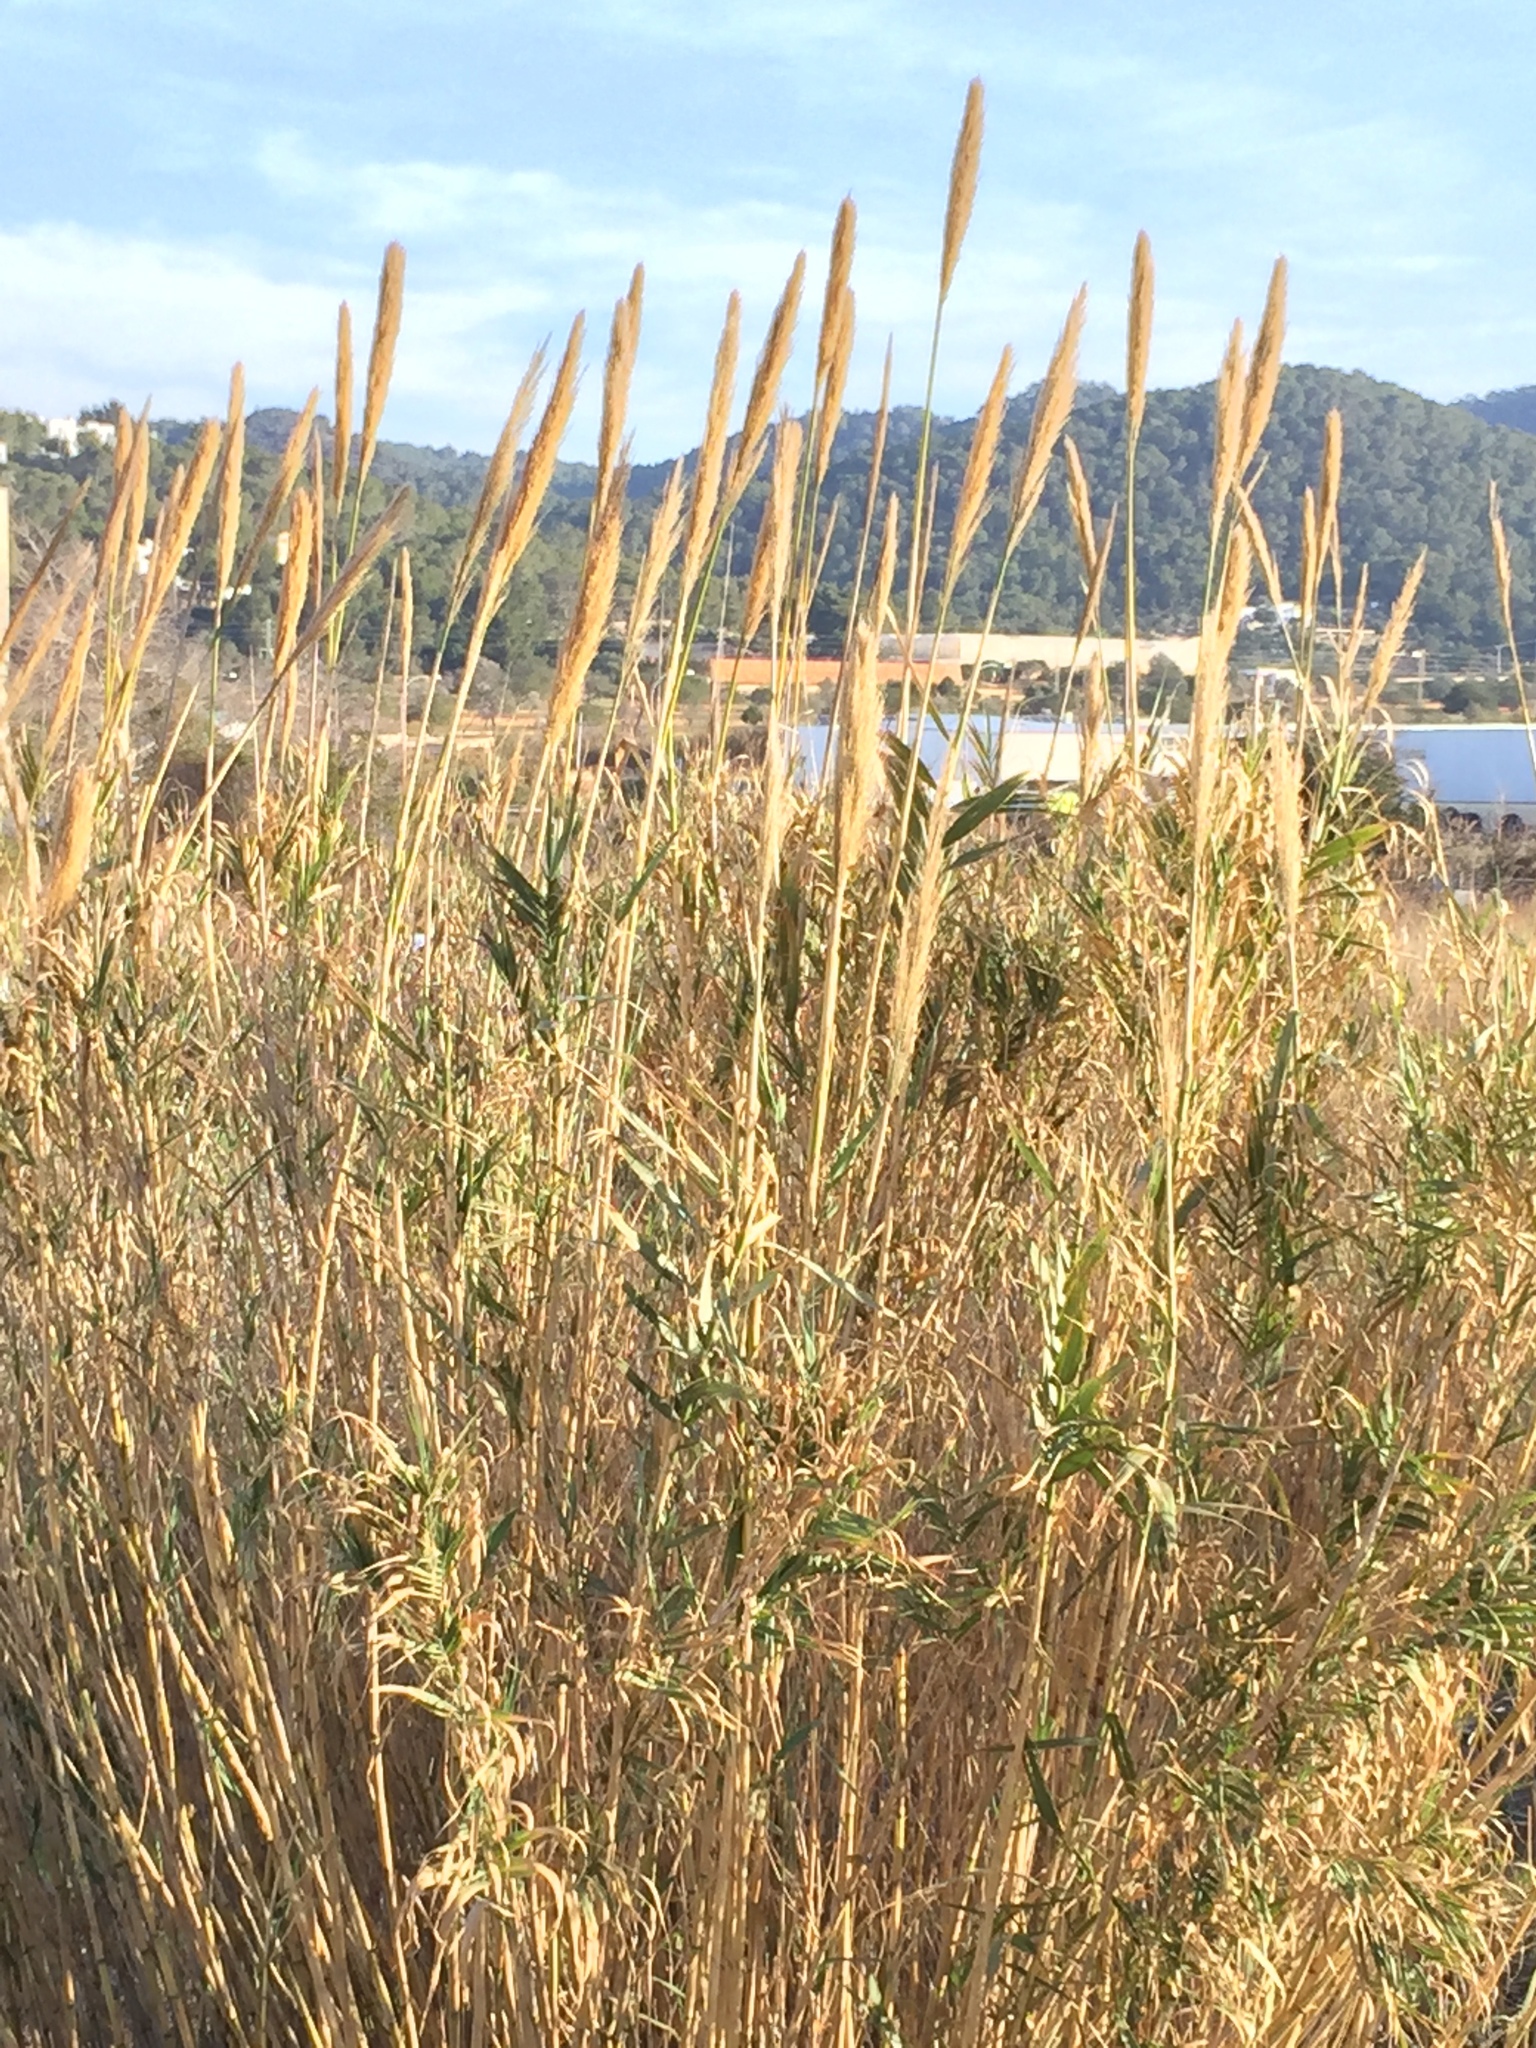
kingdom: Plantae
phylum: Tracheophyta
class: Liliopsida
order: Poales
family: Poaceae
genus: Arundo
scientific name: Arundo donax
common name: Giant reed
